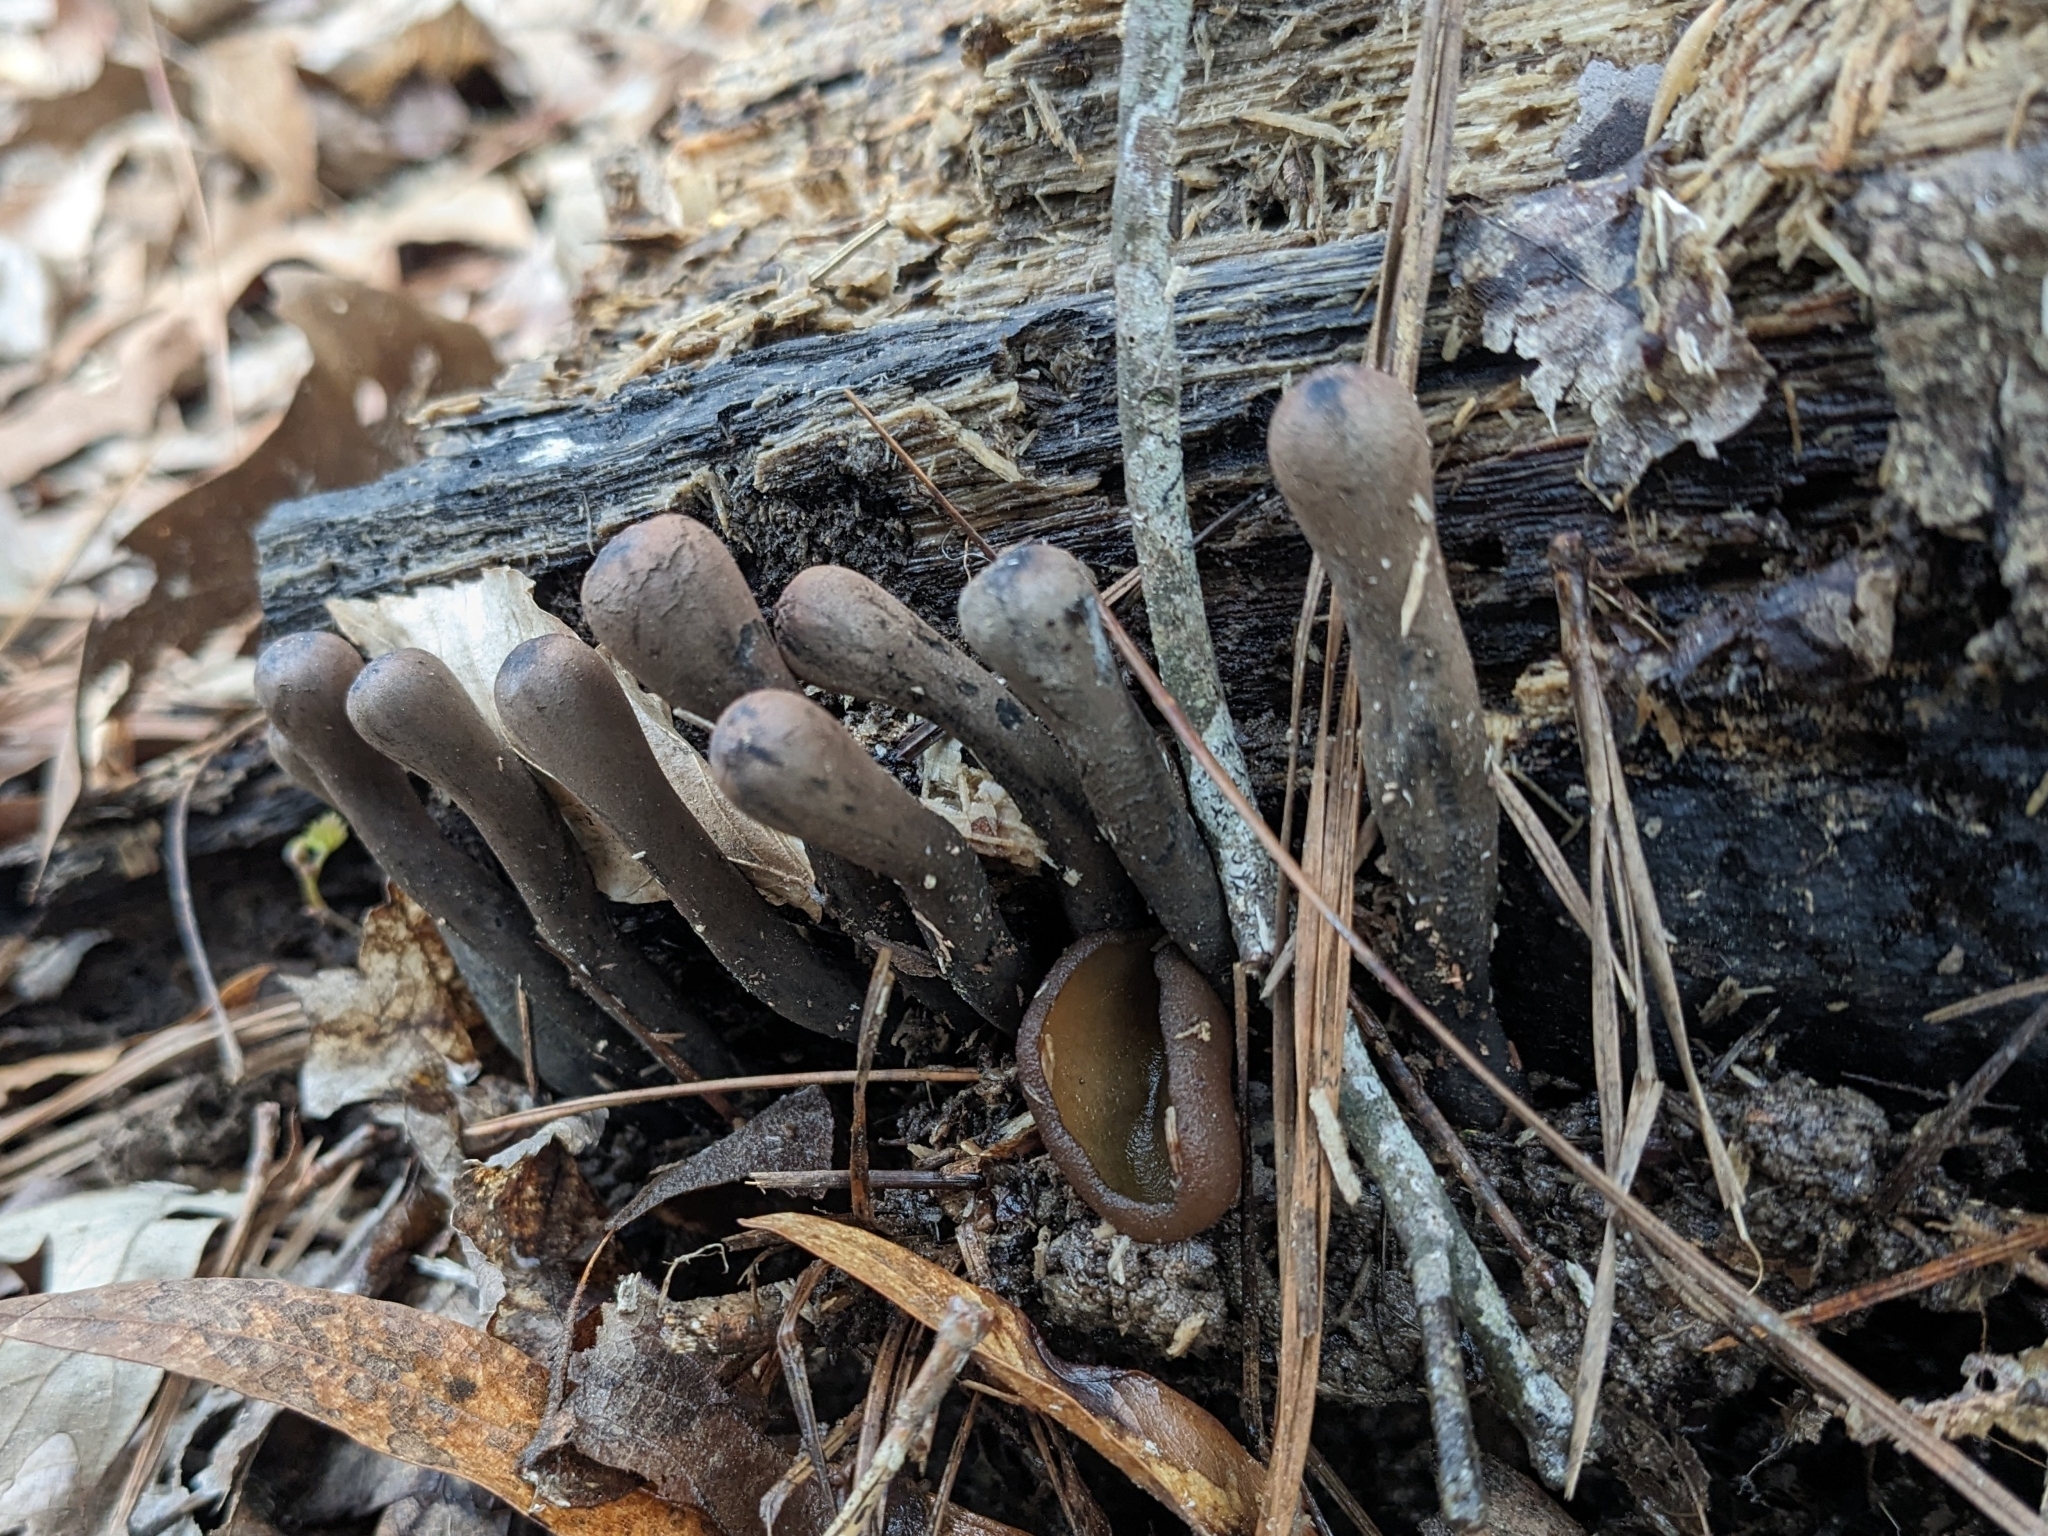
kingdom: Fungi
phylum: Ascomycota
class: Pezizomycetes
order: Pezizales
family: Sarcosomataceae
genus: Urnula
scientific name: Urnula craterium
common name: Devil's urn
